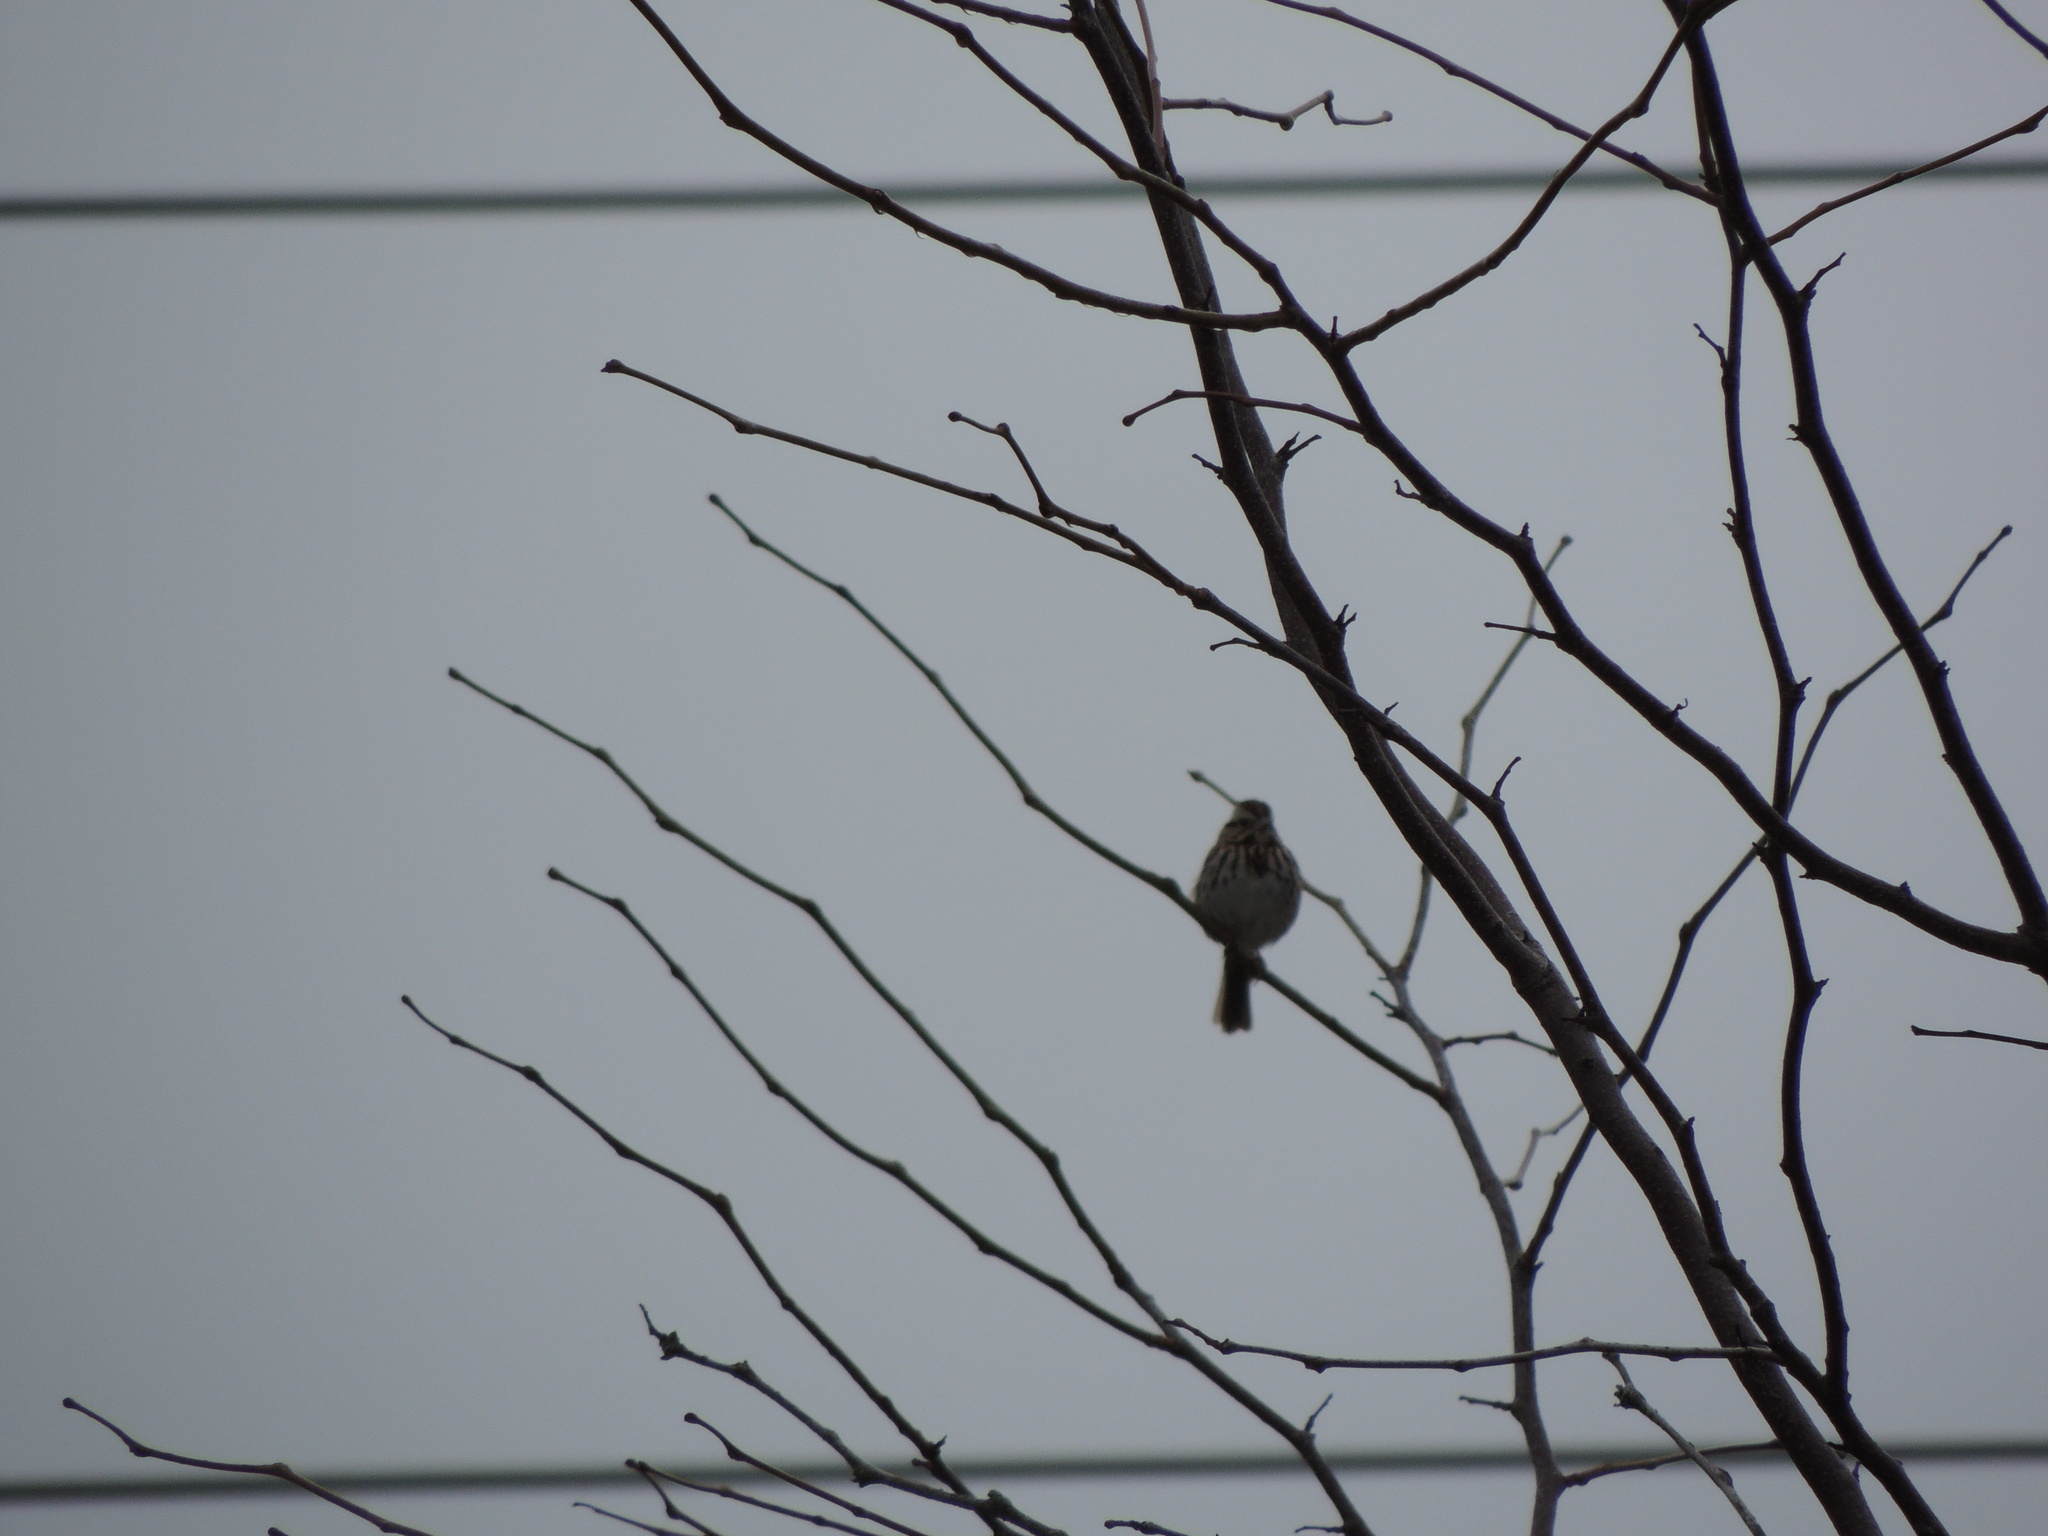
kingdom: Animalia
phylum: Chordata
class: Aves
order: Passeriformes
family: Passerellidae
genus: Melospiza
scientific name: Melospiza melodia
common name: Song sparrow
